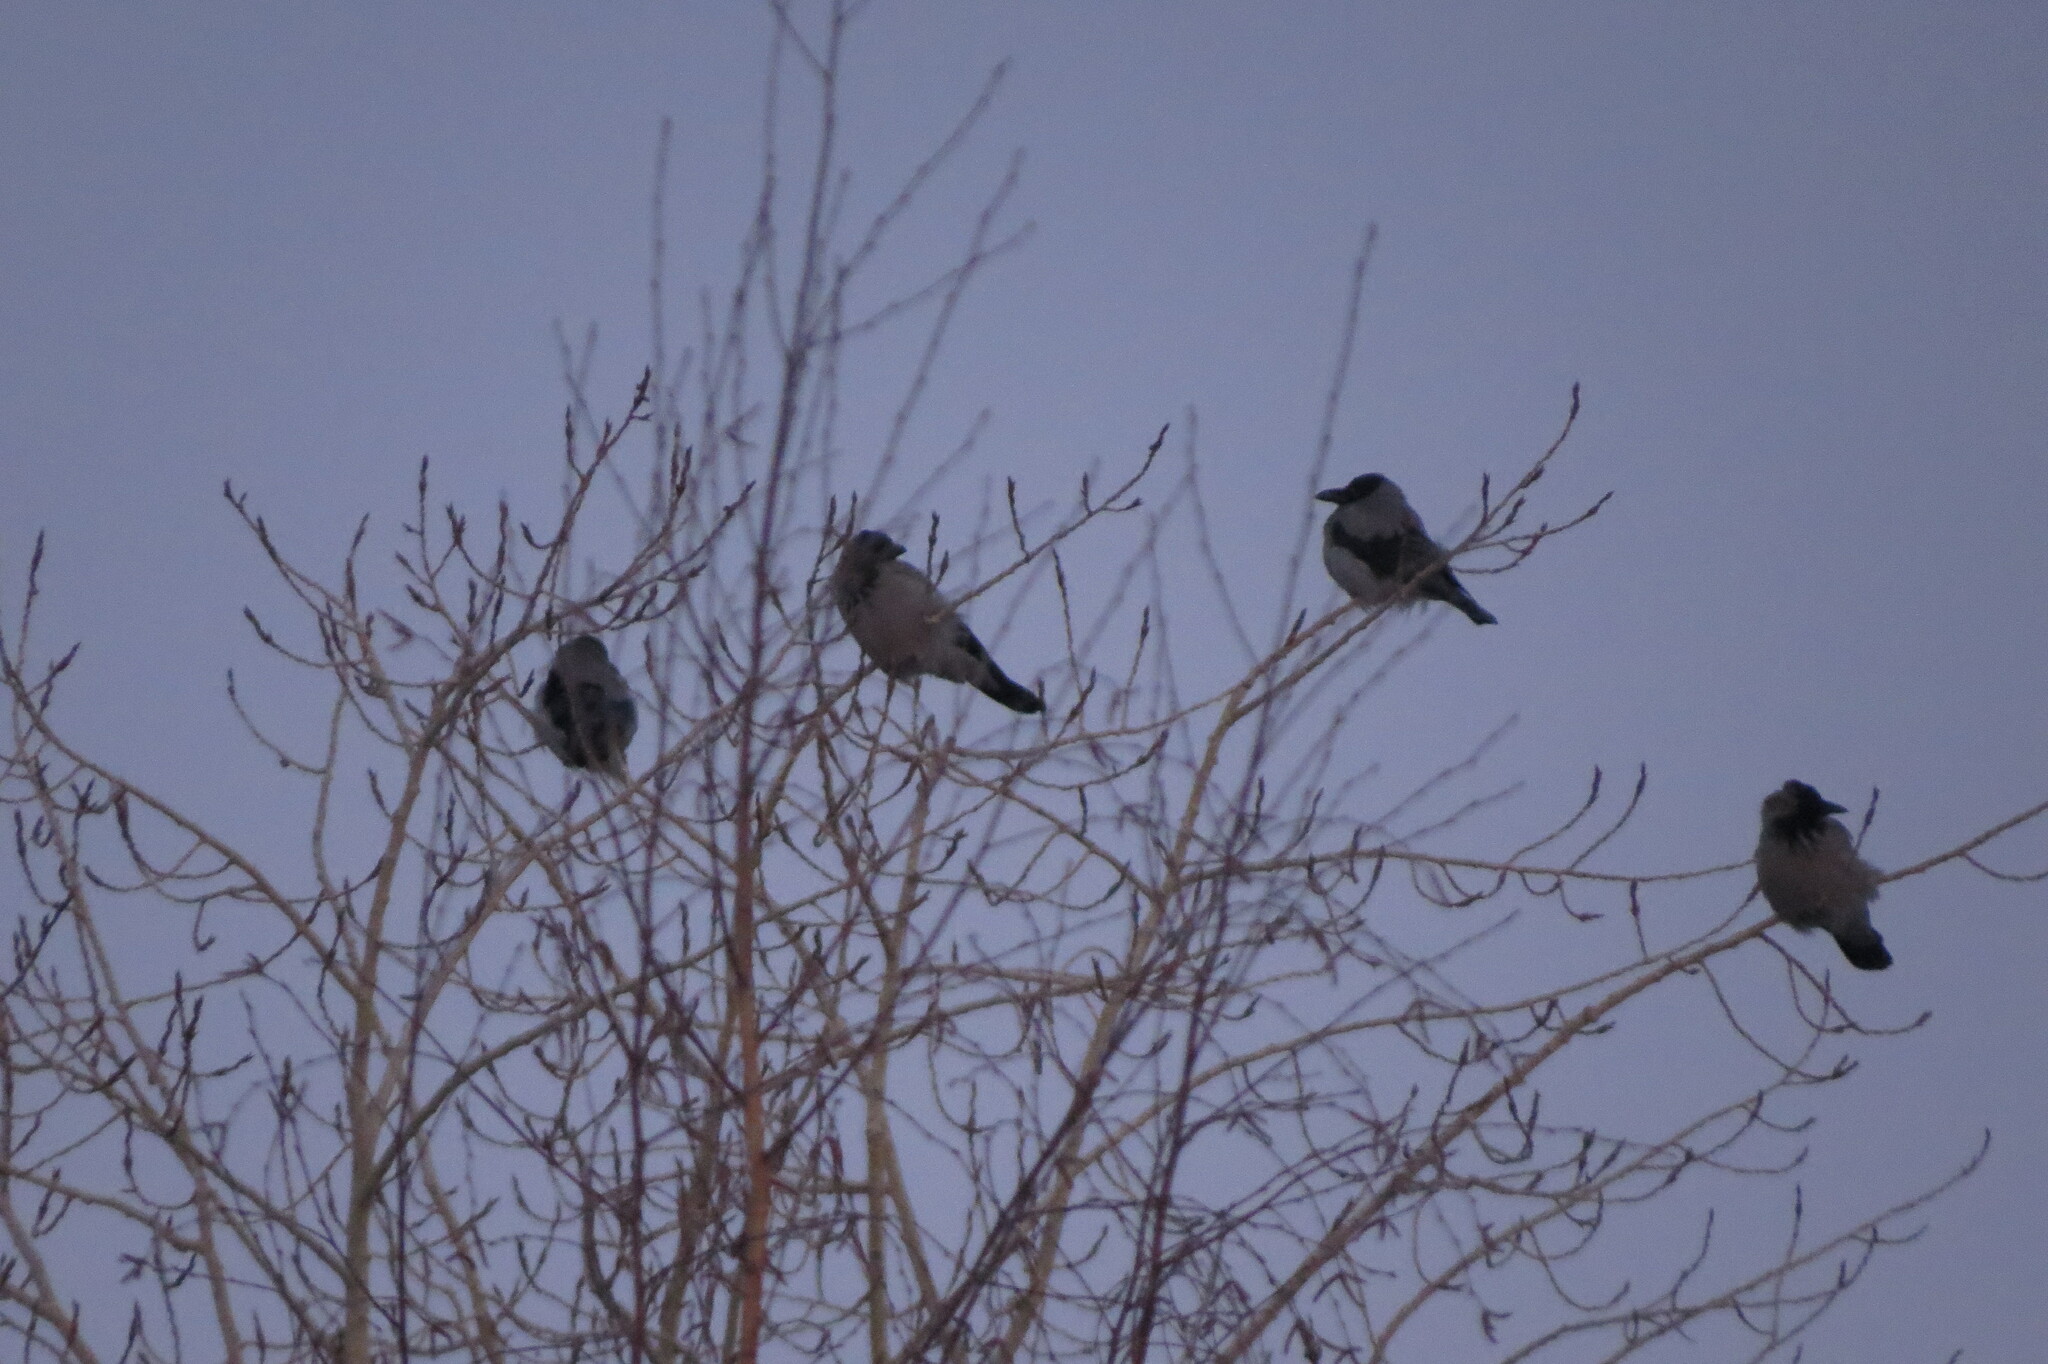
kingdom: Animalia
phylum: Chordata
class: Aves
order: Passeriformes
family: Corvidae
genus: Corvus
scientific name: Corvus cornix
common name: Hooded crow
